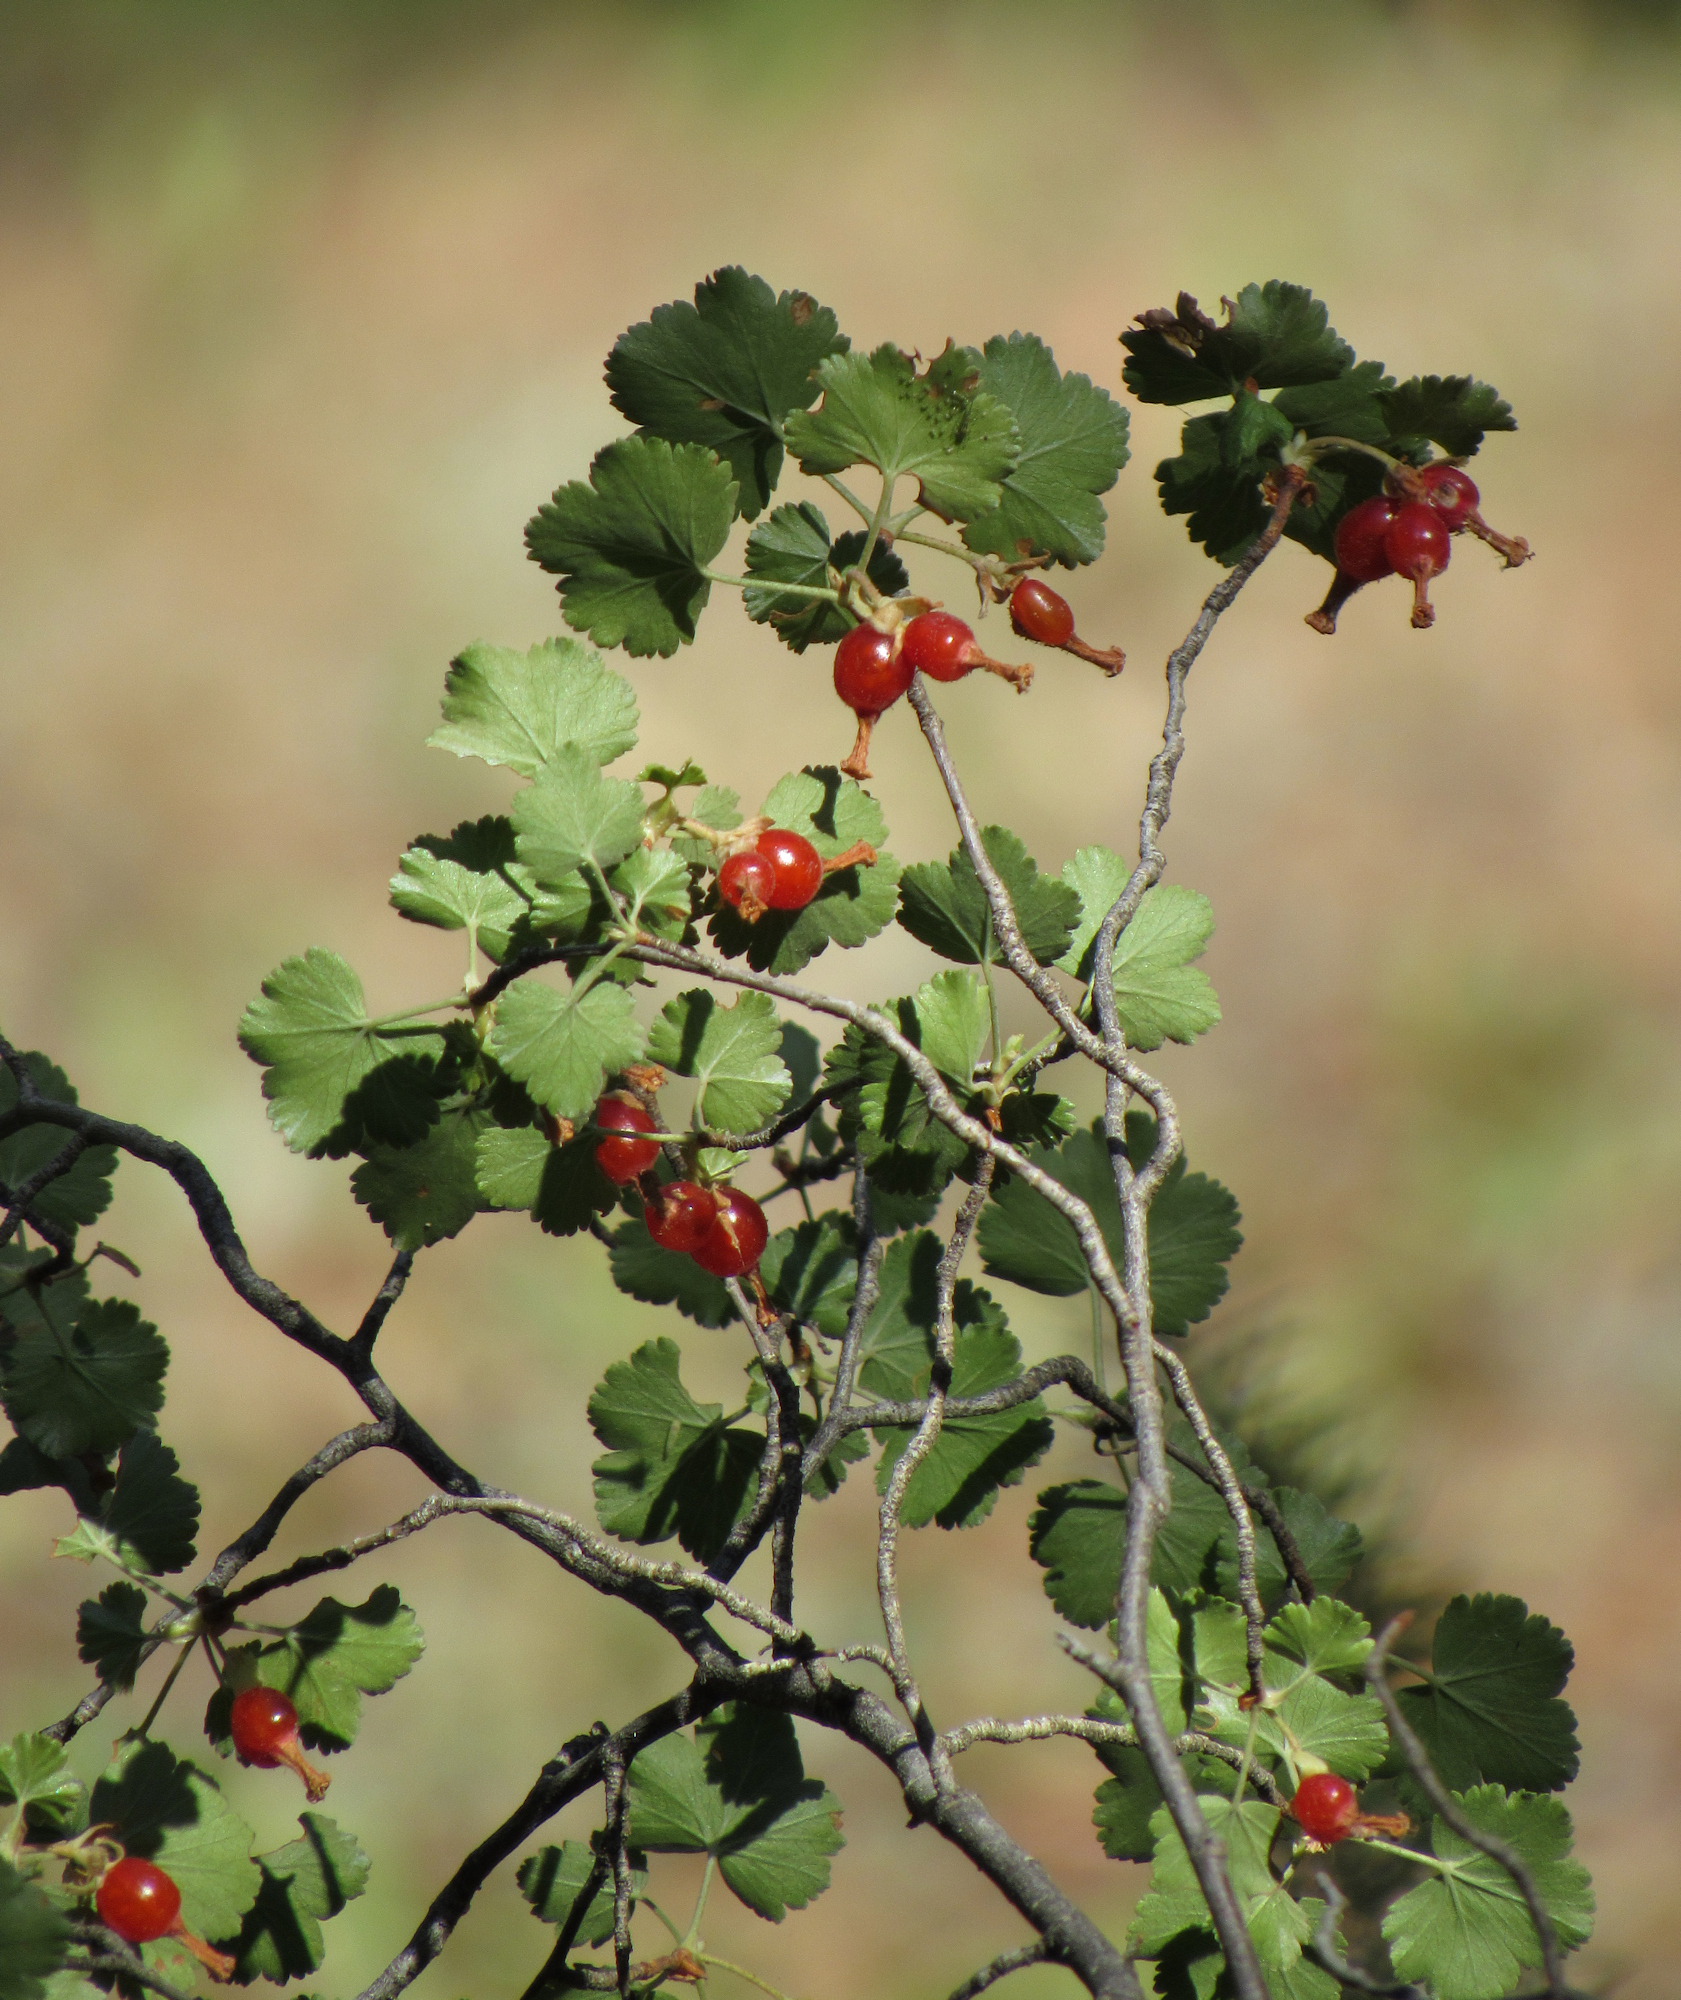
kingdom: Plantae
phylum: Tracheophyta
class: Magnoliopsida
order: Saxifragales
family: Grossulariaceae
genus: Ribes
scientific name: Ribes cereum
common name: Wax currant
